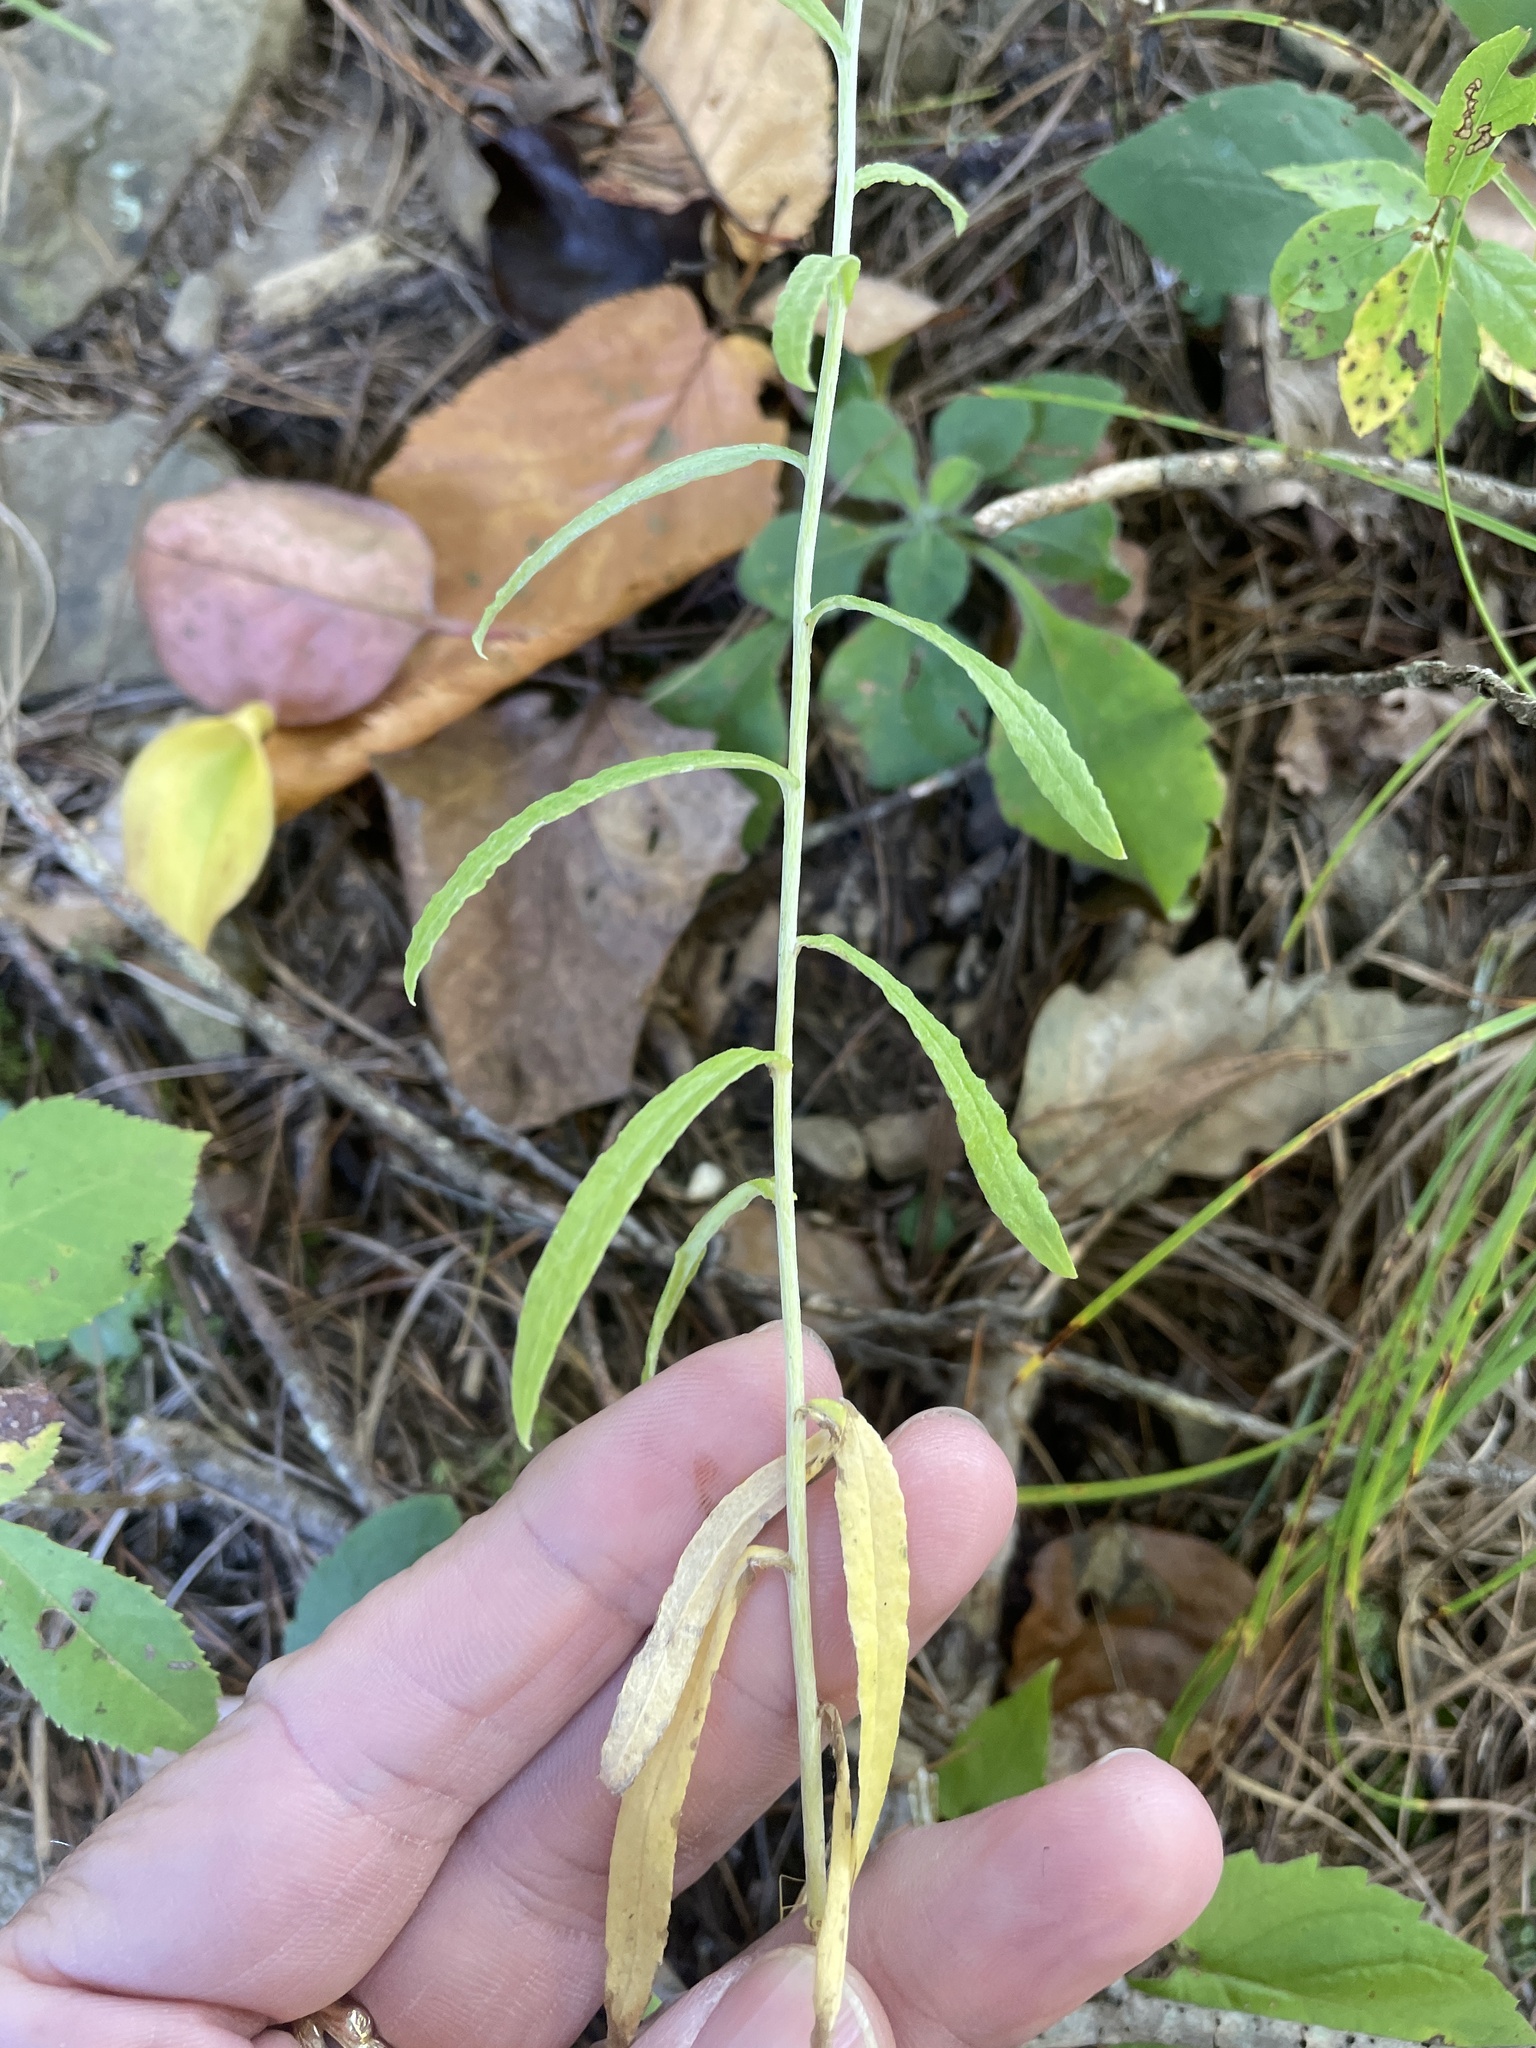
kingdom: Plantae
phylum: Tracheophyta
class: Magnoliopsida
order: Asterales
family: Asteraceae
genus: Pseudognaphalium
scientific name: Pseudognaphalium obtusifolium
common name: Eastern rabbit-tobacco
